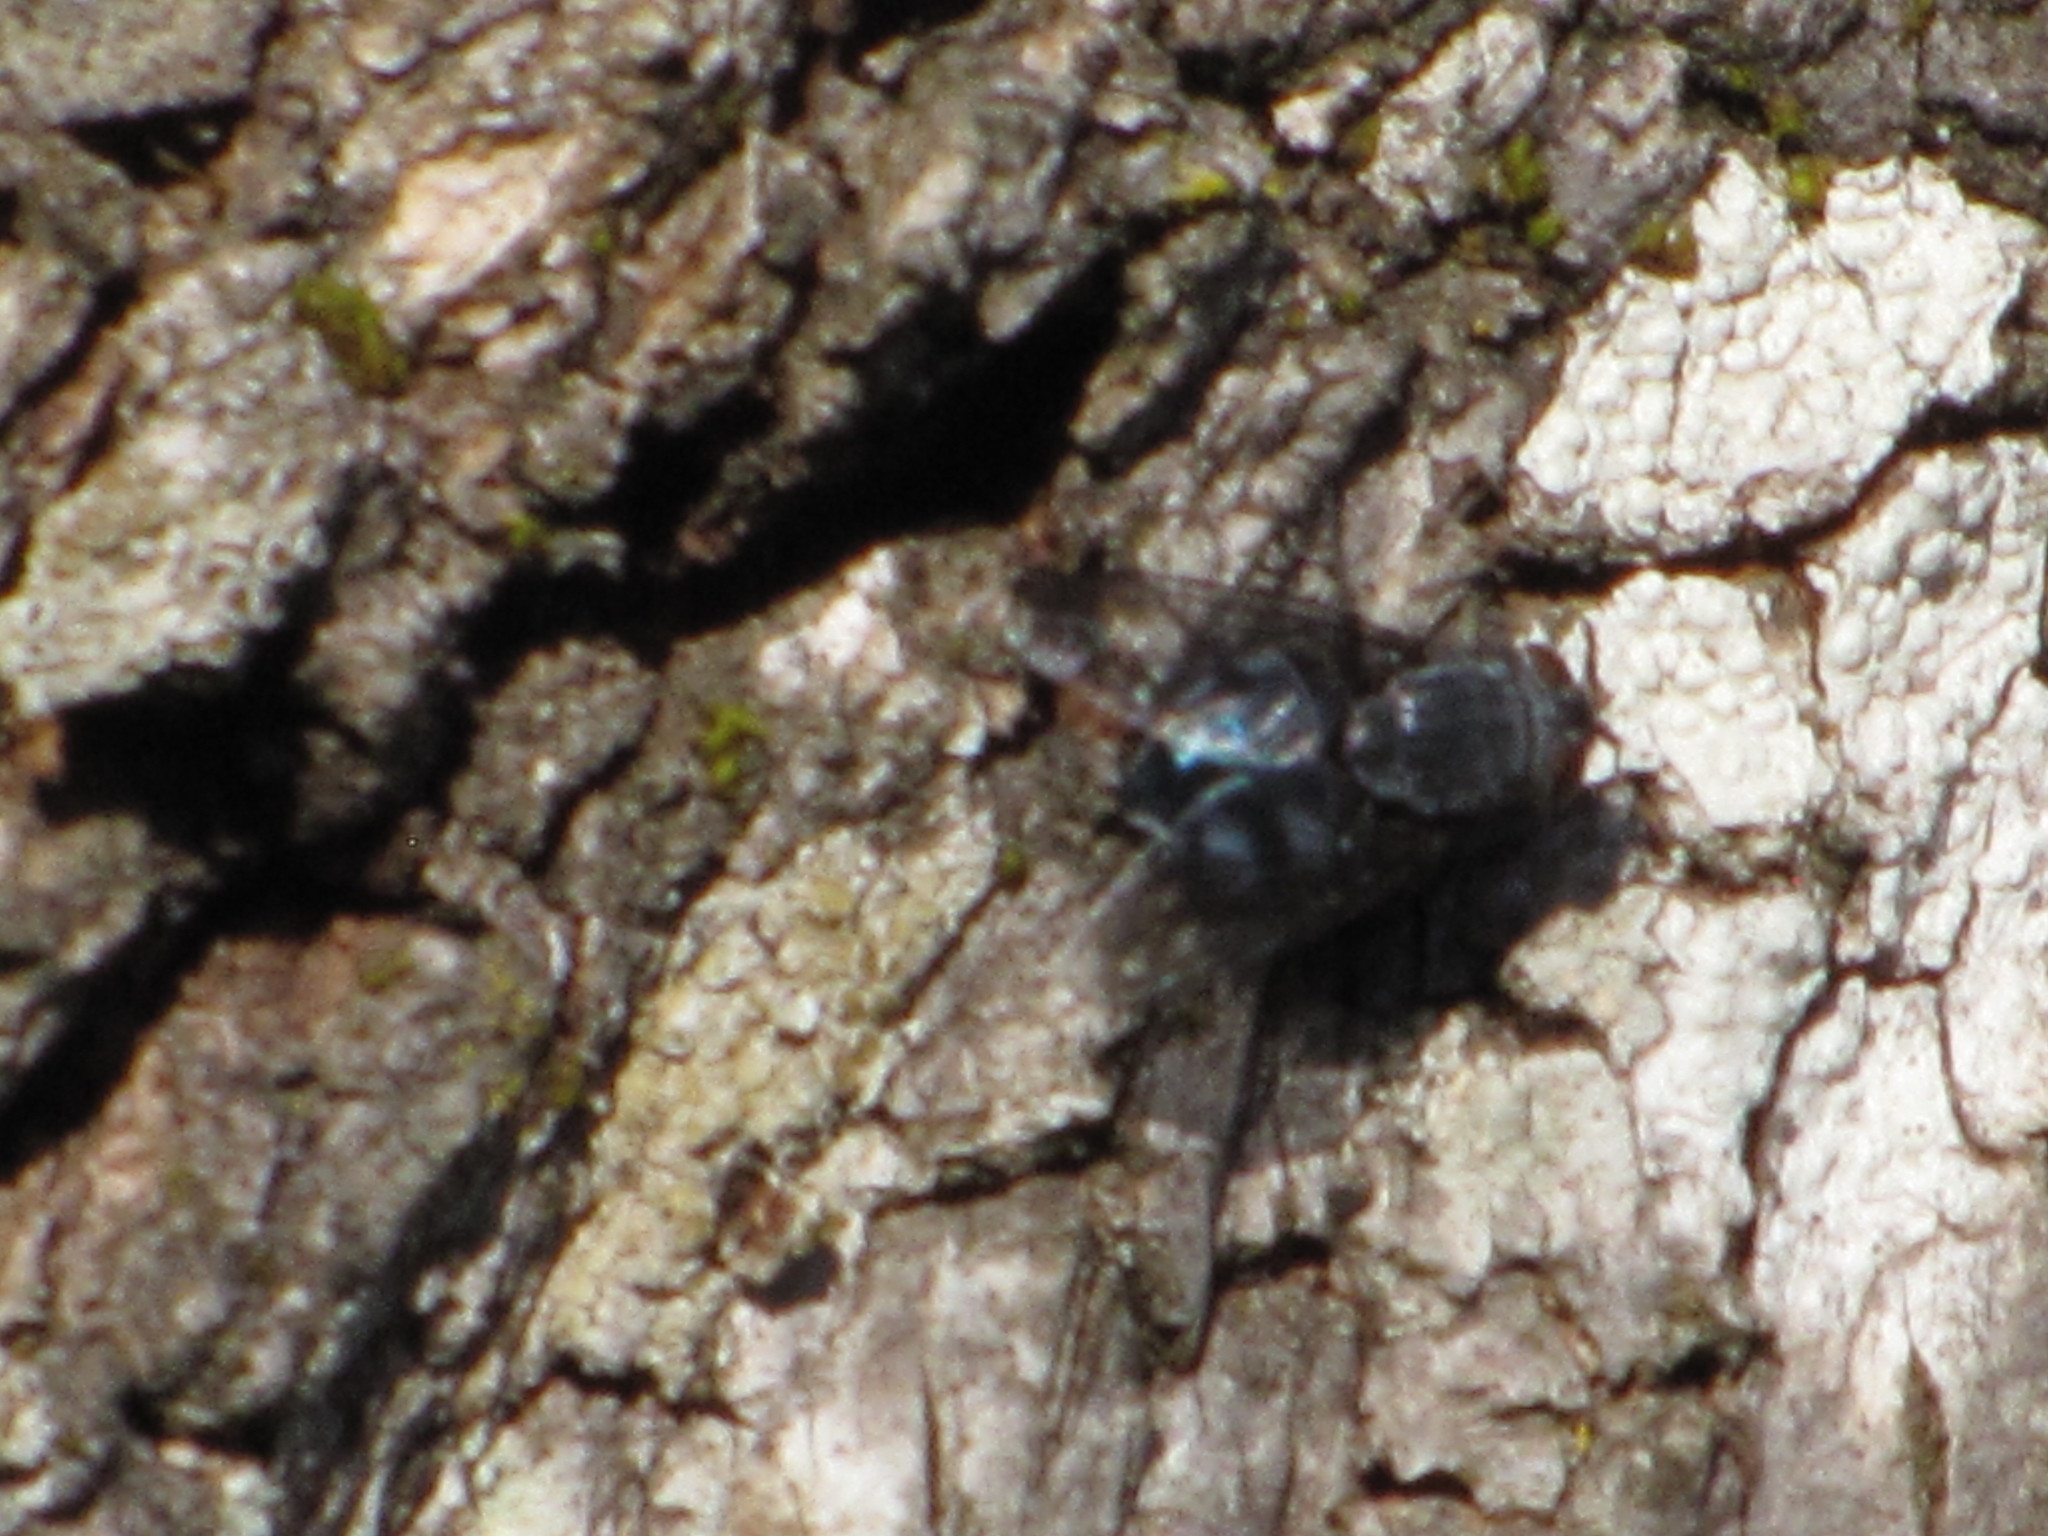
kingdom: Animalia
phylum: Arthropoda
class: Insecta
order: Diptera
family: Calliphoridae
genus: Calliphora
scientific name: Calliphora vicina
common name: Common blow flie
